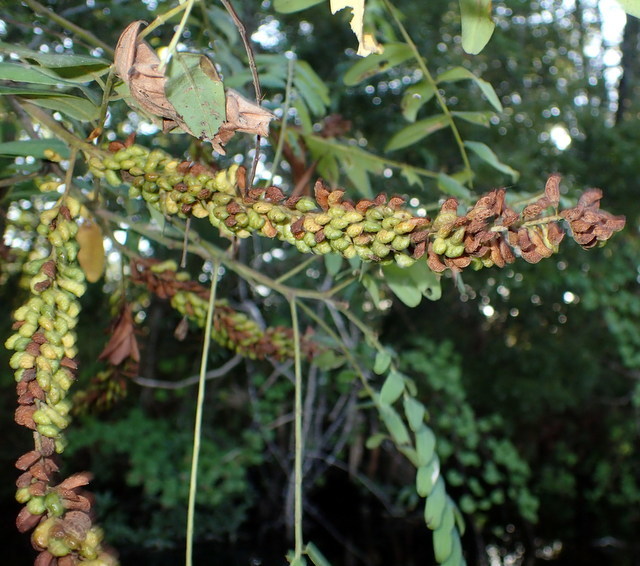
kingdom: Plantae
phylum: Tracheophyta
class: Magnoliopsida
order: Fabales
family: Fabaceae
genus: Amorpha
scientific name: Amorpha fruticosa
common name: False indigo
